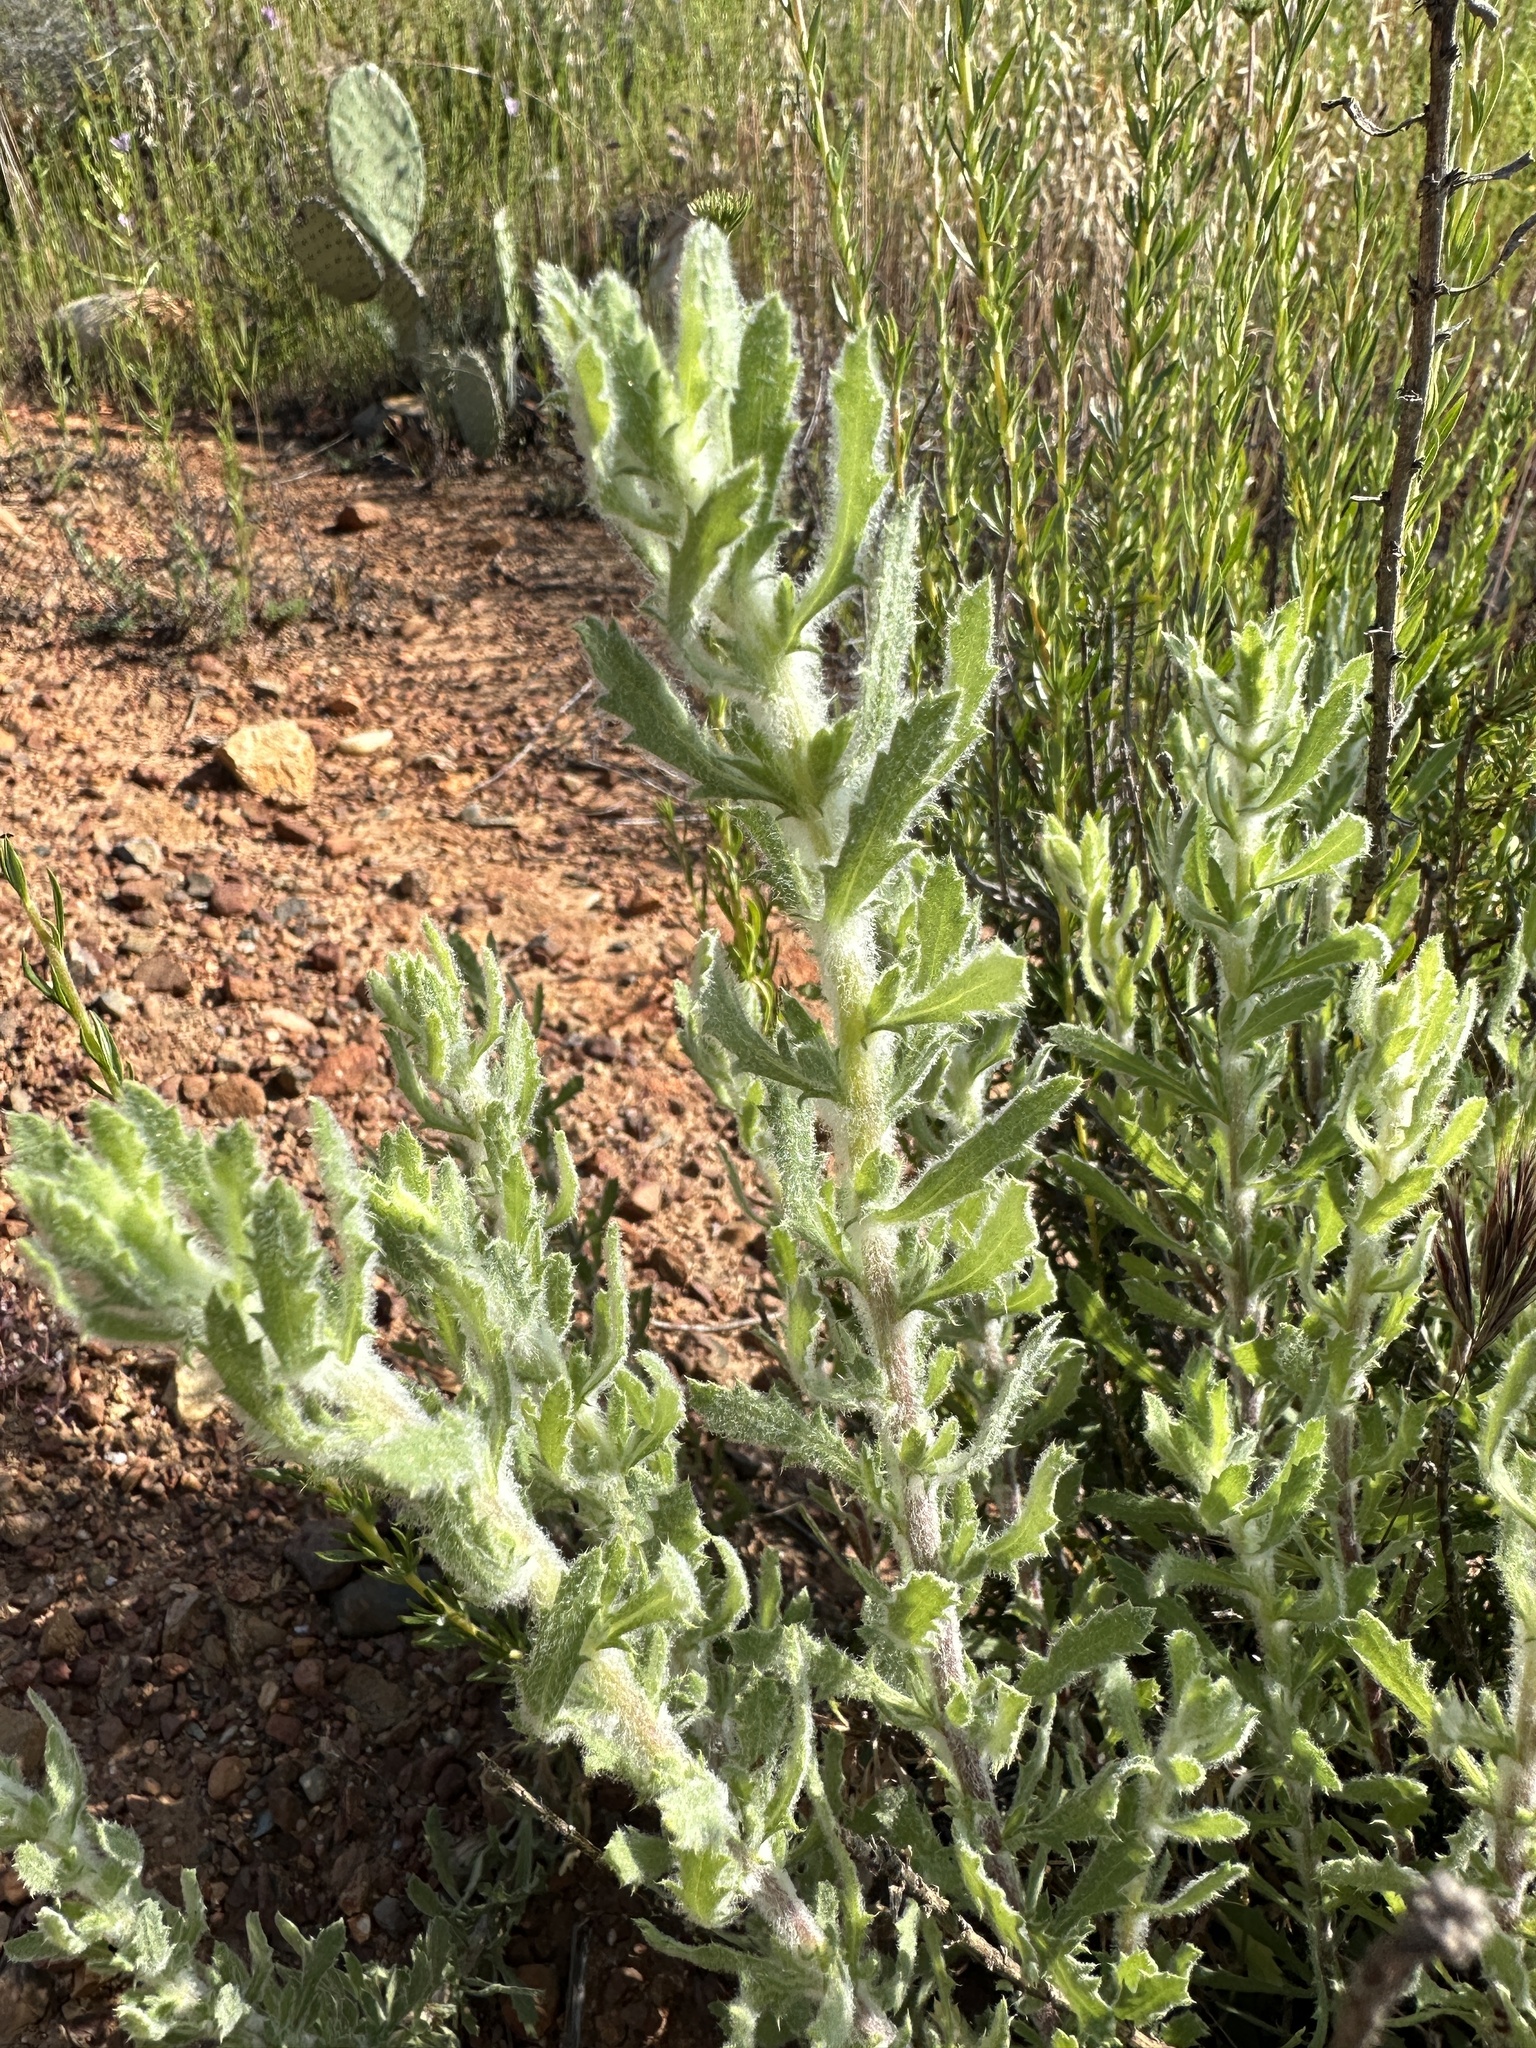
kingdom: Plantae
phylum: Tracheophyta
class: Magnoliopsida
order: Asterales
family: Asteraceae
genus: Isocoma
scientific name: Isocoma menziesii
